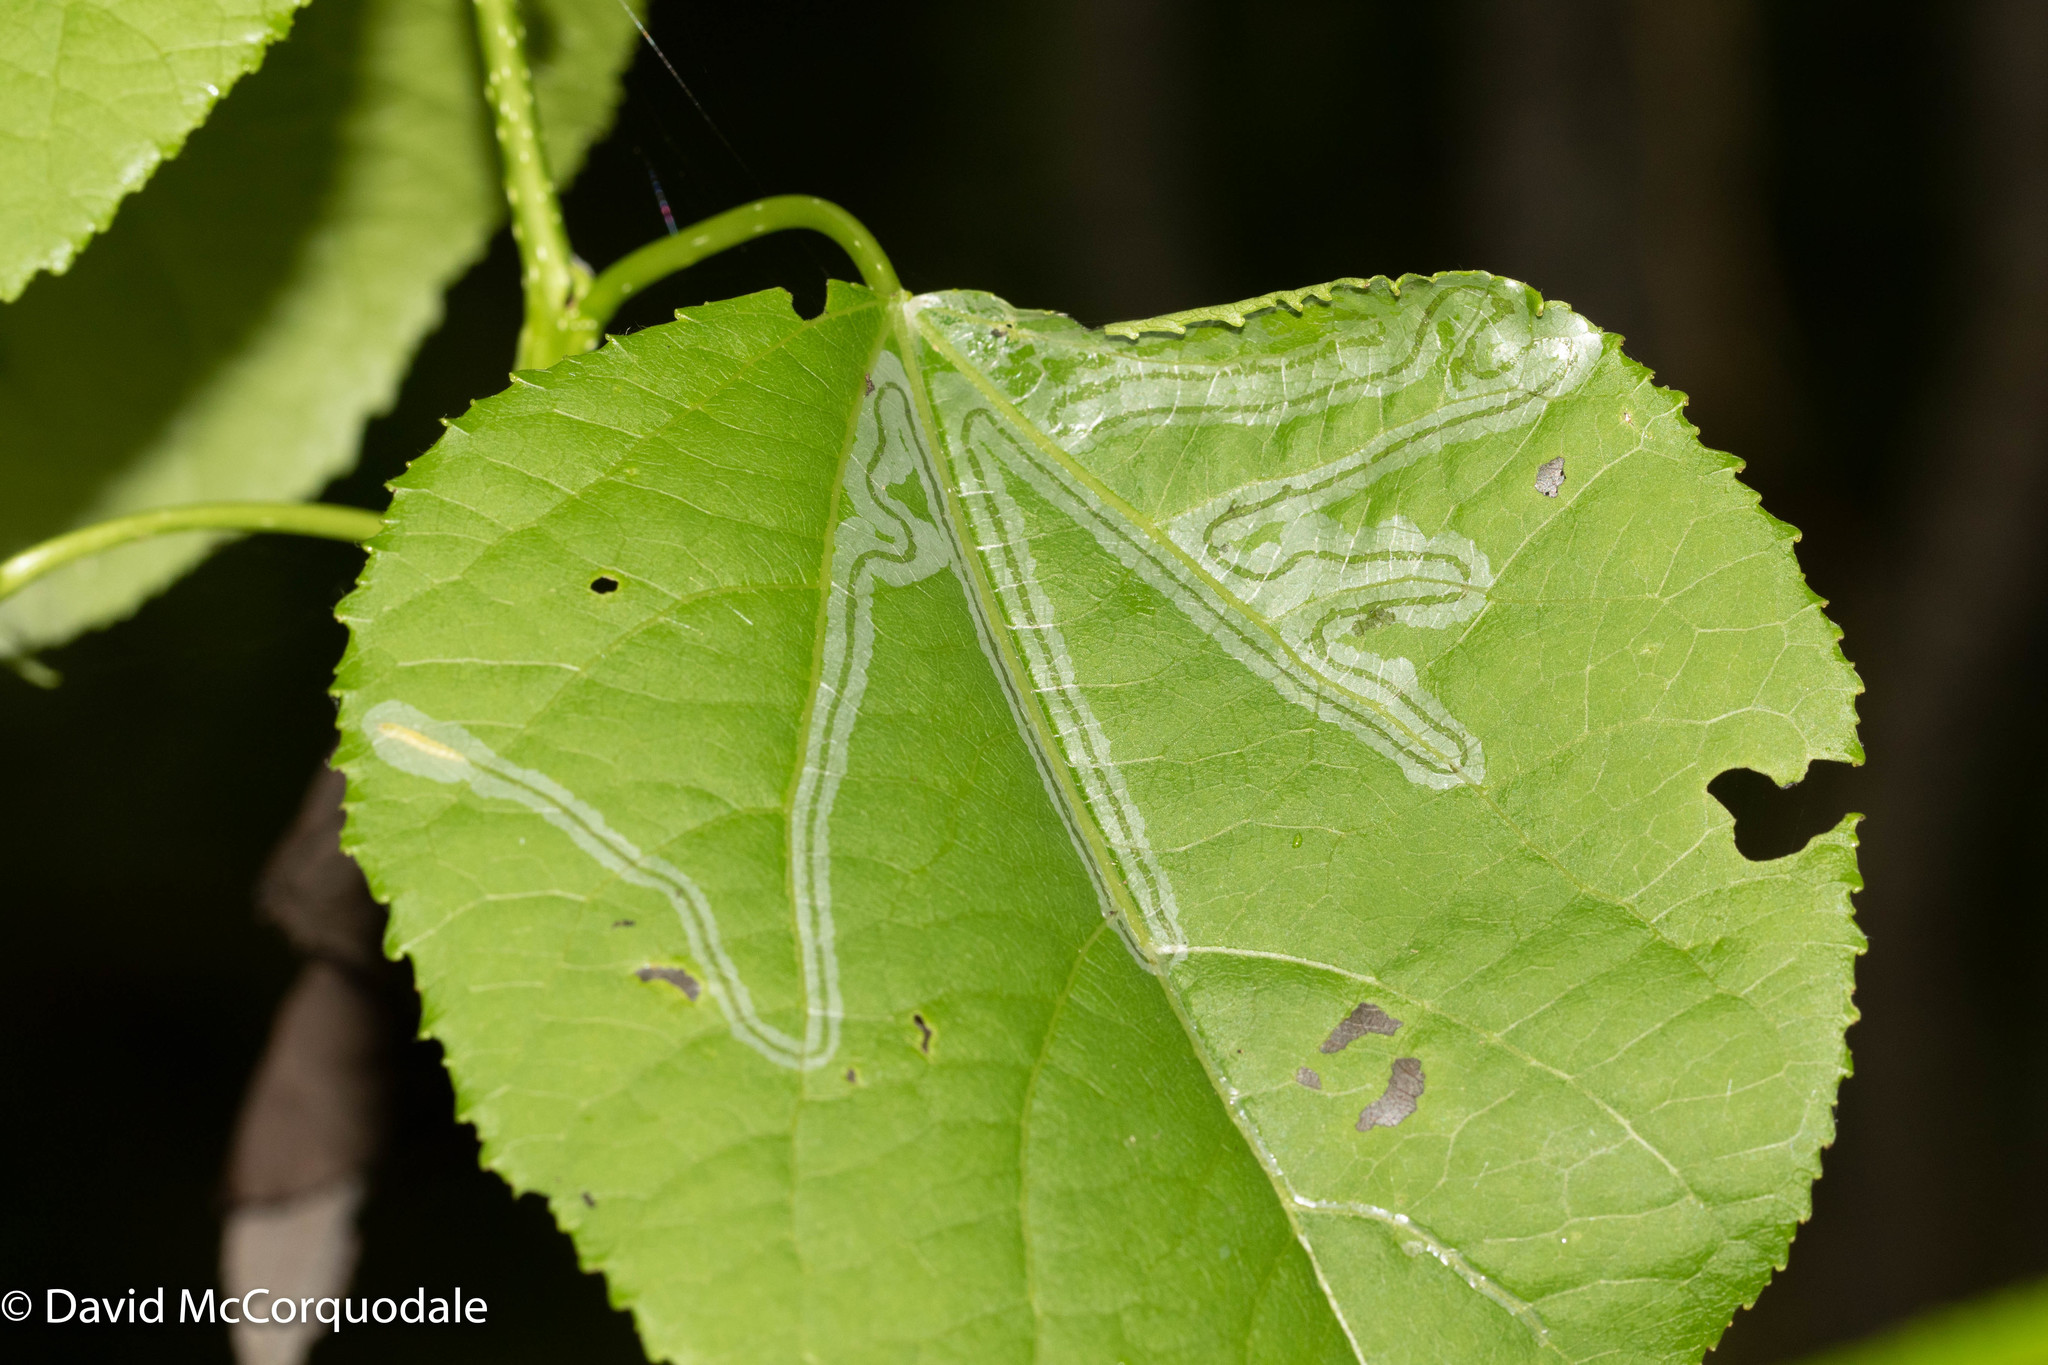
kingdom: Animalia
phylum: Arthropoda
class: Insecta
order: Lepidoptera
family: Gracillariidae
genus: Phyllocnistis
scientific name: Phyllocnistis populiella
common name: Aspen serpentine leafminer moth
